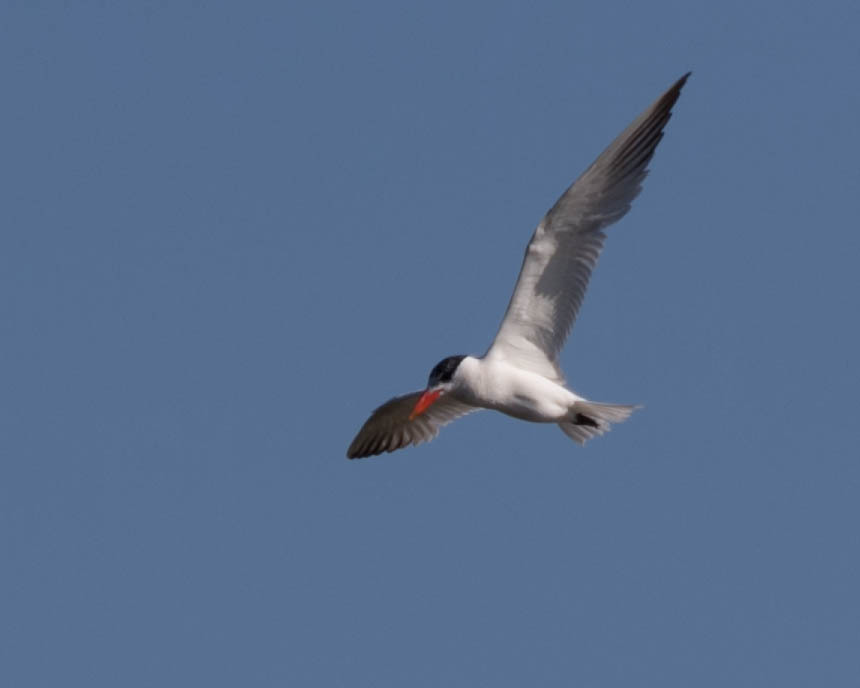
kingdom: Animalia
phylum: Chordata
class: Aves
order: Charadriiformes
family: Laridae
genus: Hydroprogne
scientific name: Hydroprogne caspia
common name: Caspian tern
